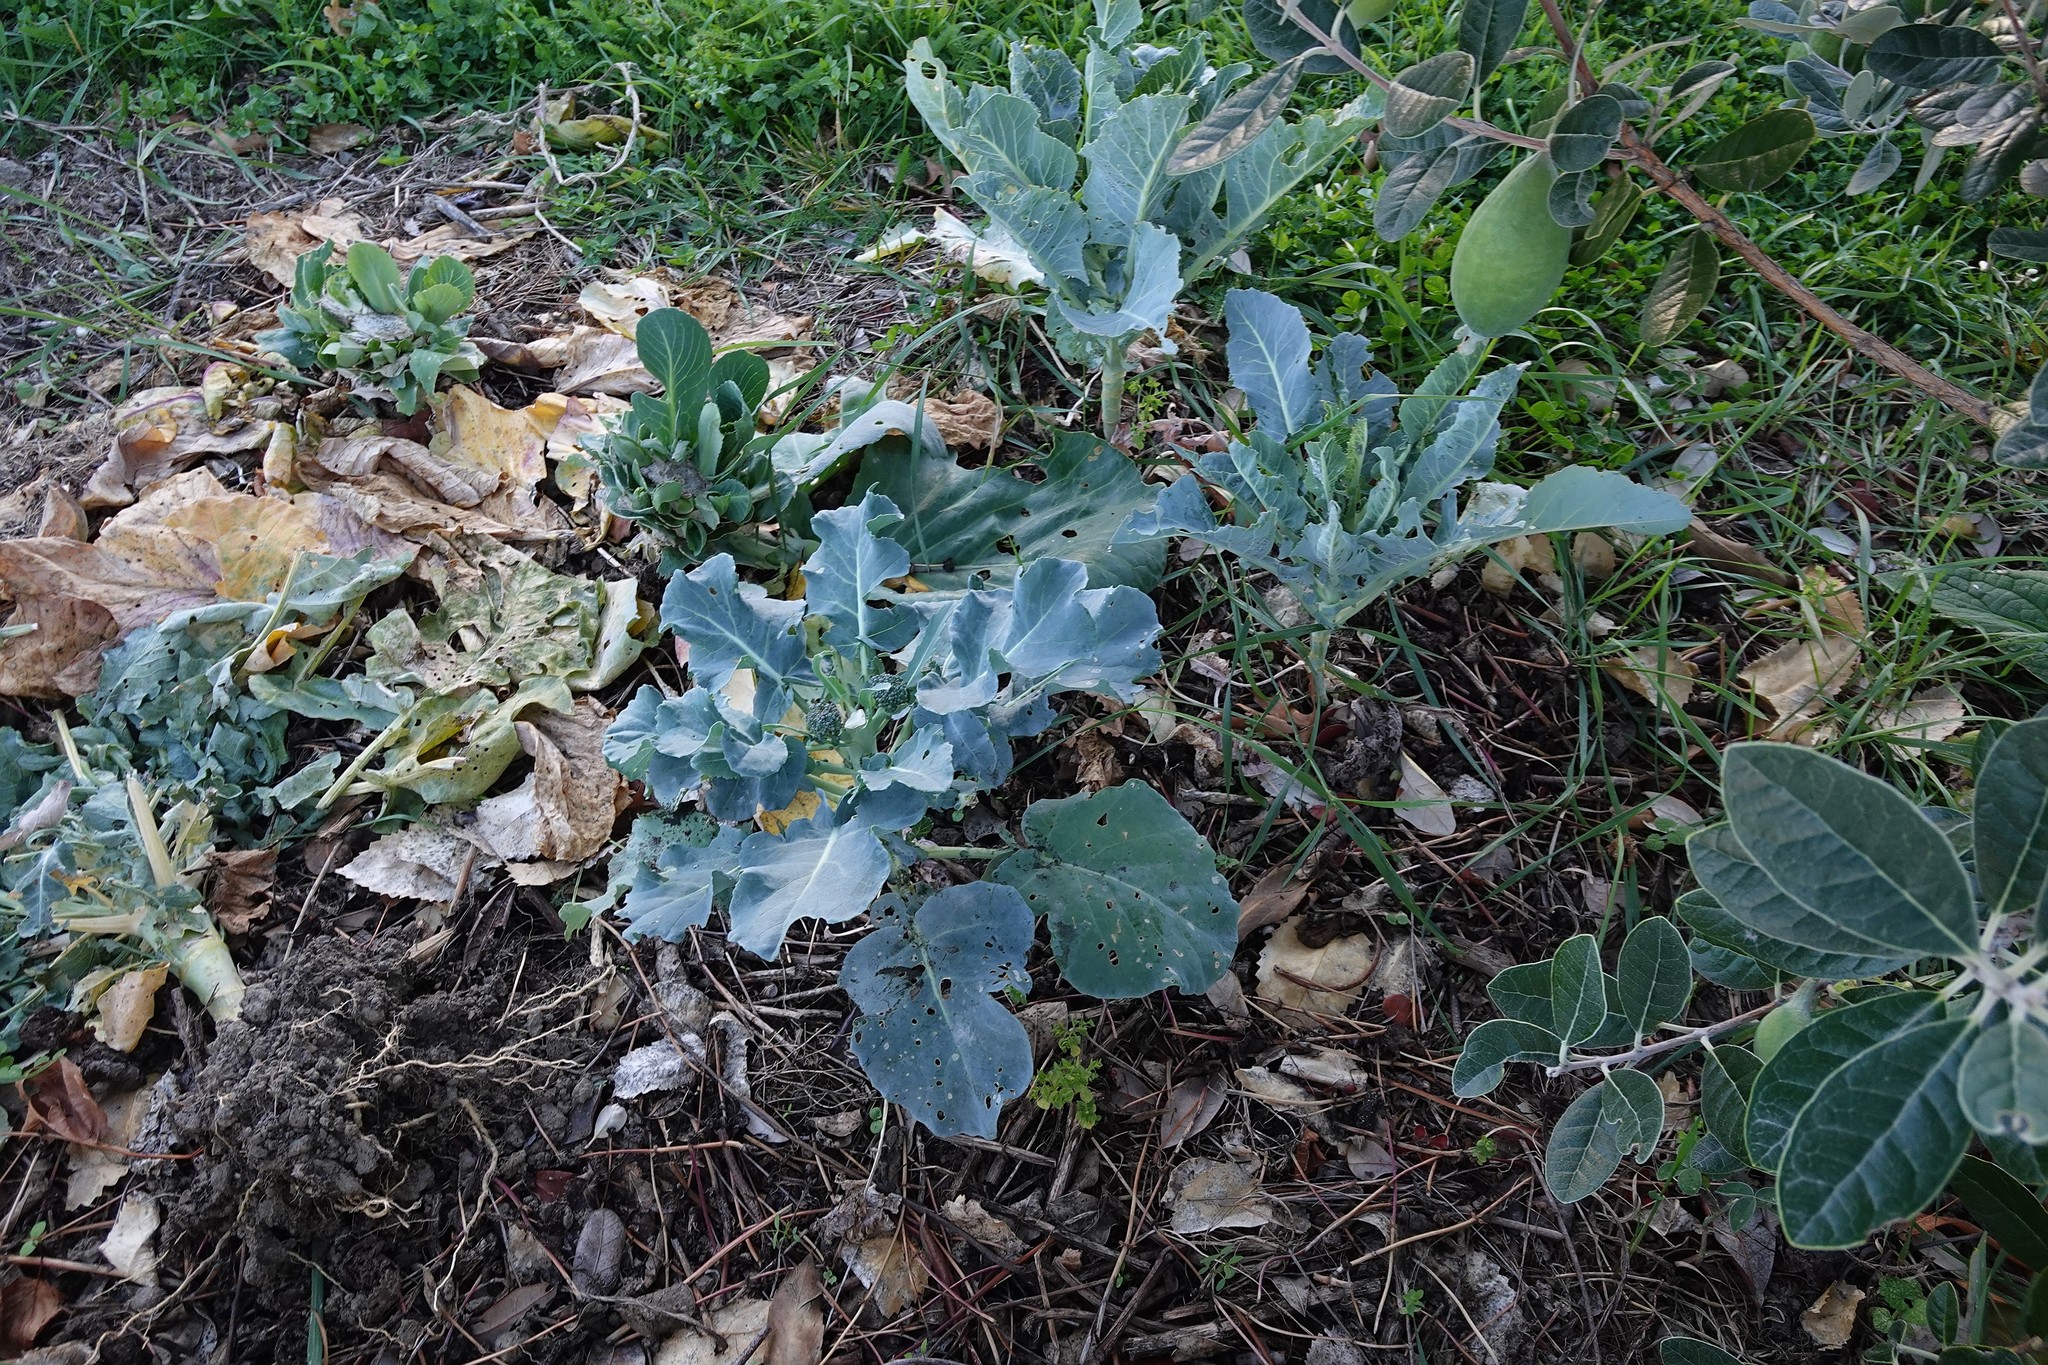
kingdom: Animalia
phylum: Arthropoda
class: Insecta
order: Lepidoptera
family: Pieridae
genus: Pieris
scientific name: Pieris rapae
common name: Small white
